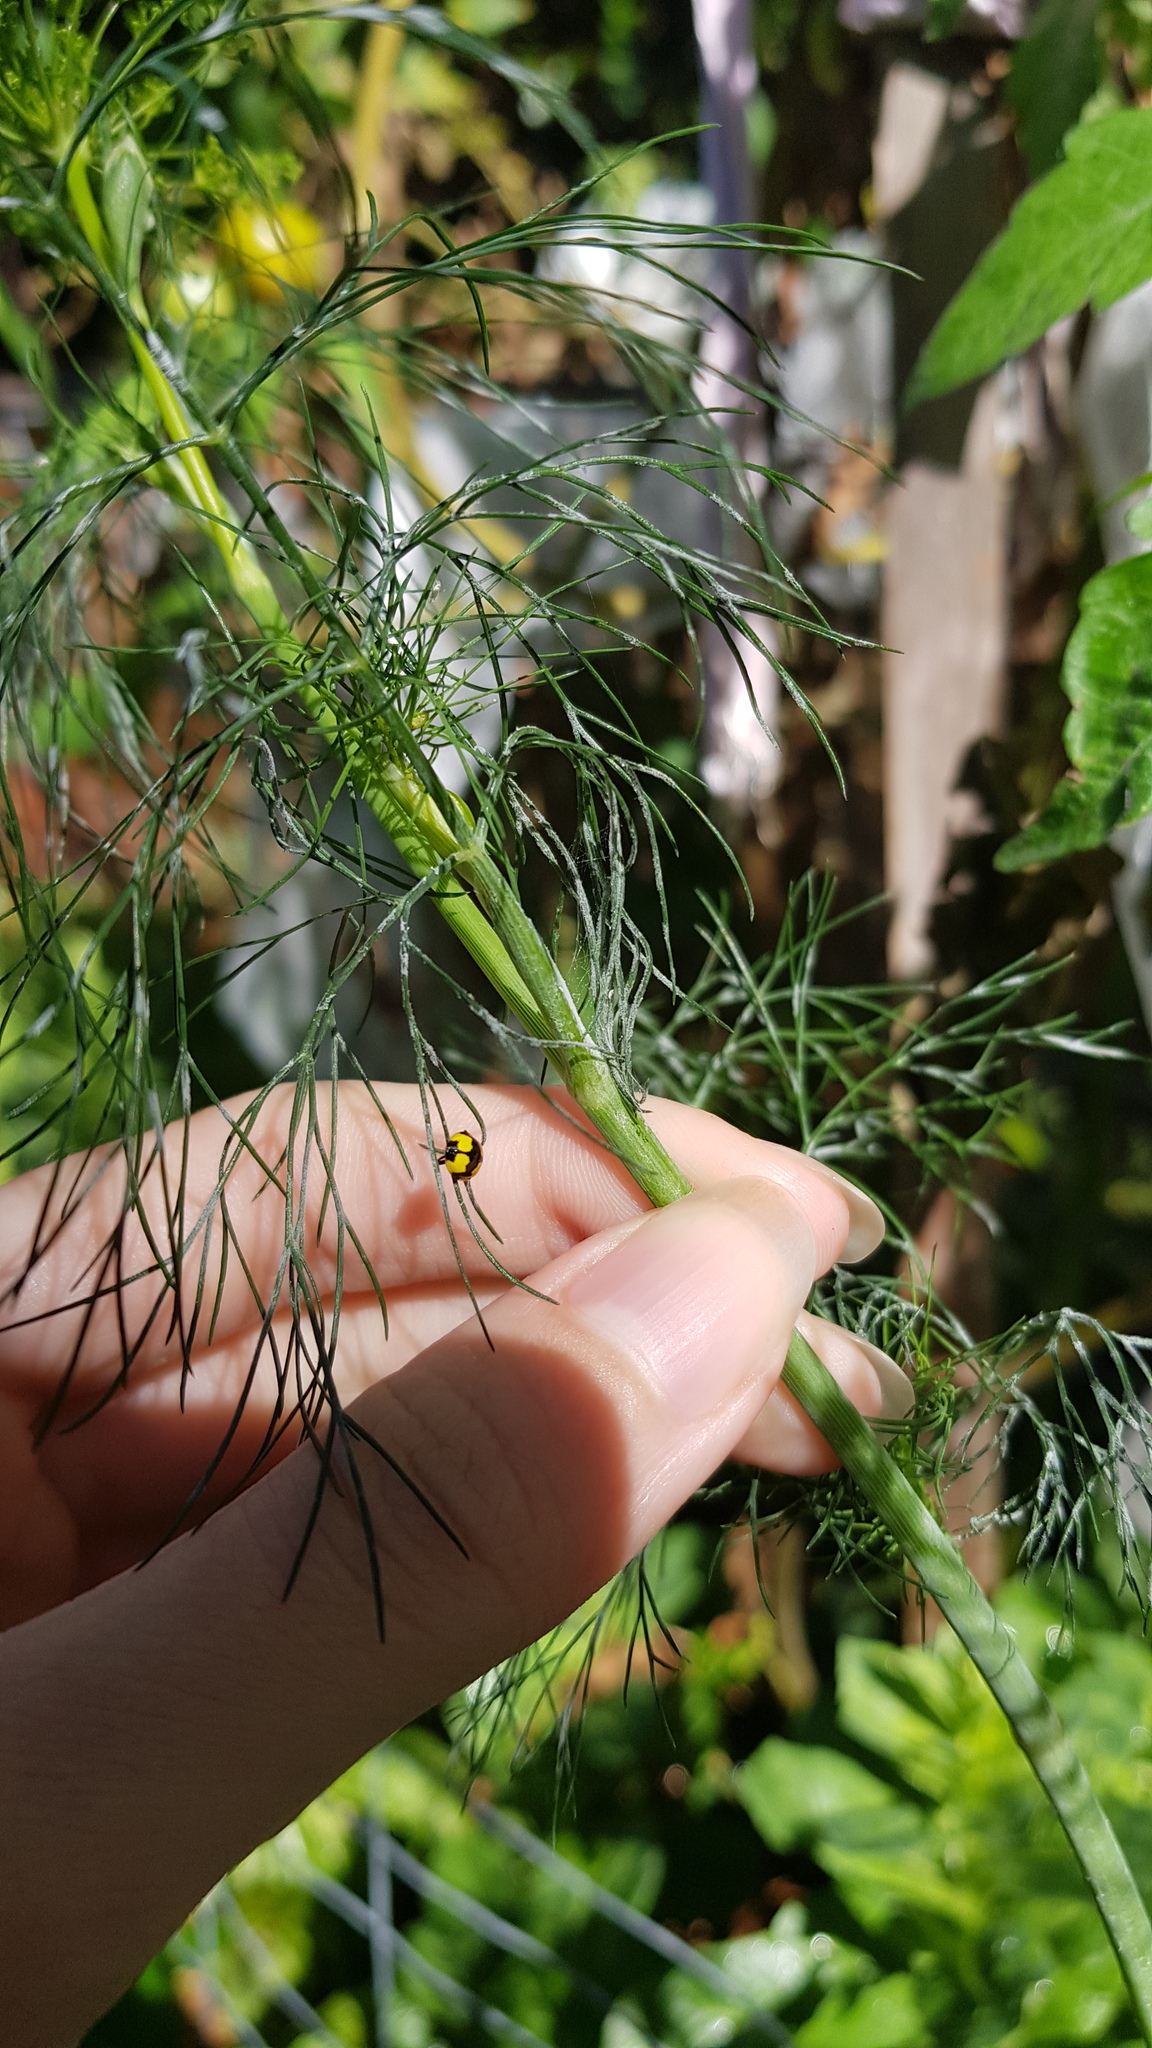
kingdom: Animalia
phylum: Arthropoda
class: Insecta
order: Coleoptera
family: Coccinellidae
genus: Illeis
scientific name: Illeis galbula
